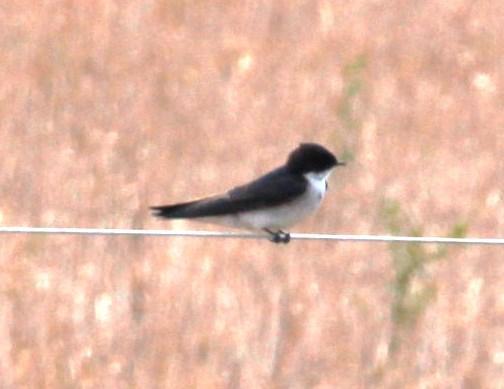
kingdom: Animalia
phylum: Chordata
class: Aves
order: Passeriformes
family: Hirundinidae
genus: Hirundo
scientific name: Hirundo dimidiata
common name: Pearl-breasted swallow
